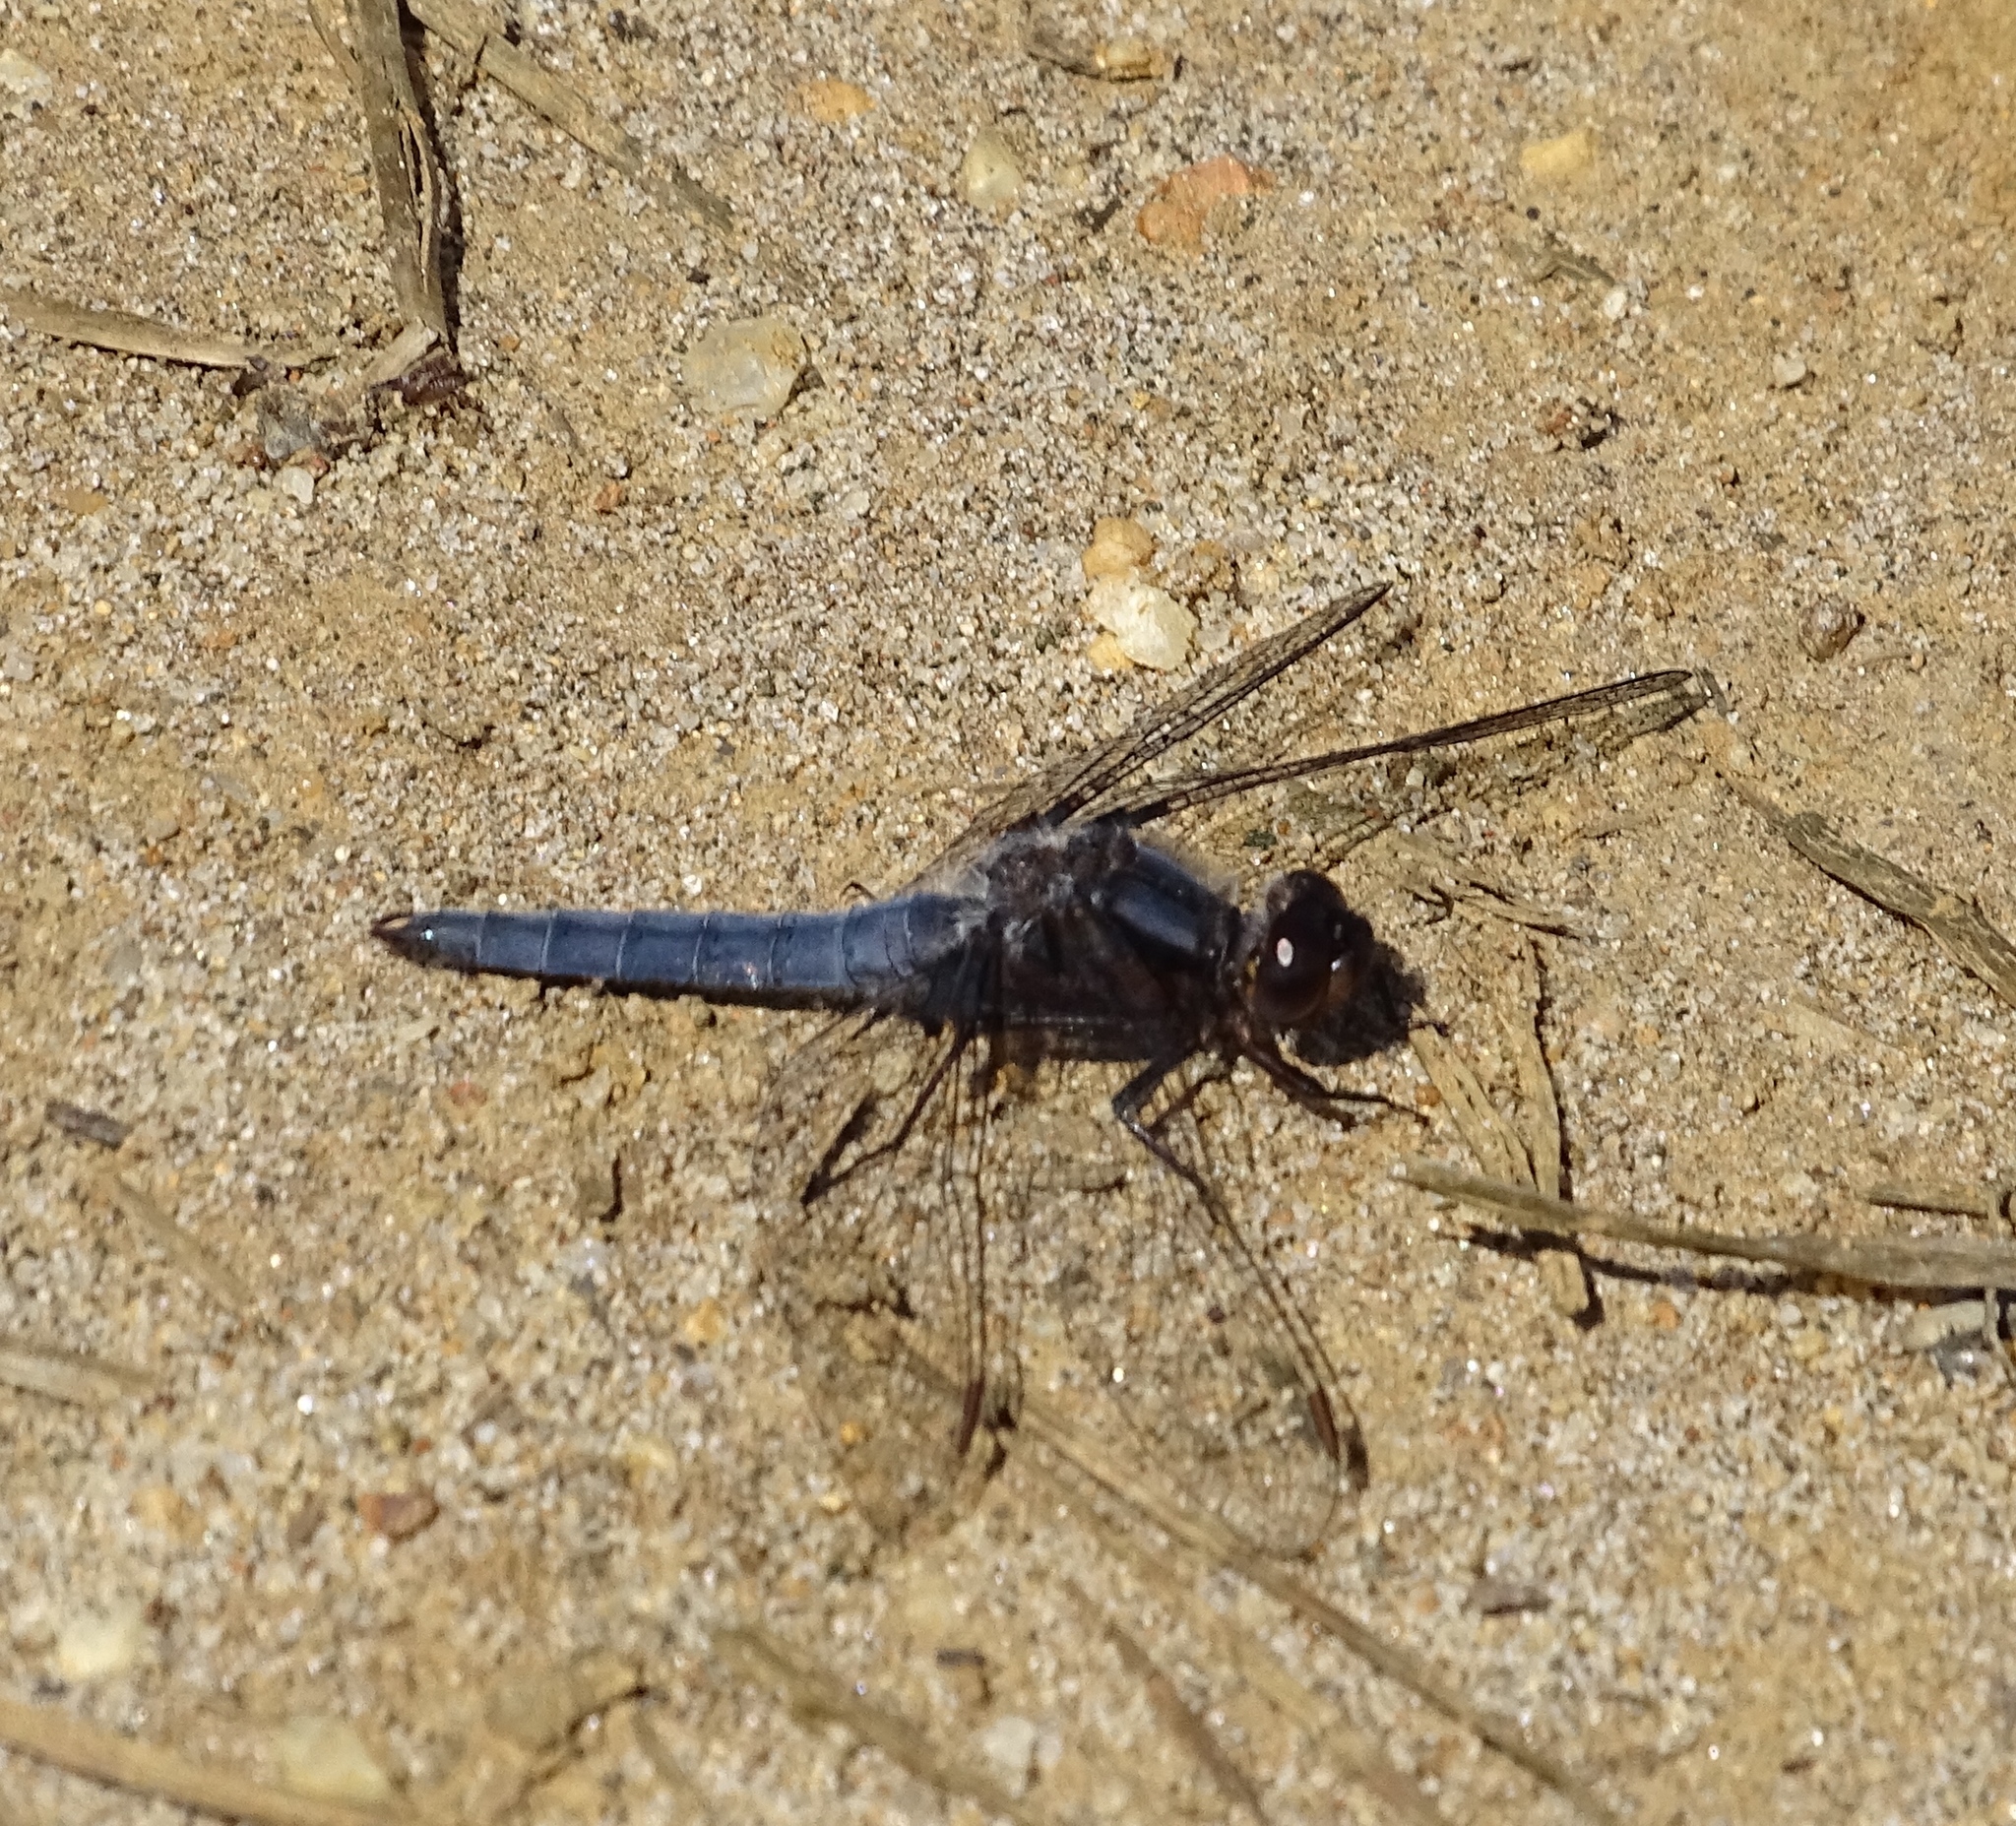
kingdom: Animalia
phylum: Arthropoda
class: Insecta
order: Odonata
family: Libellulidae
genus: Ladona
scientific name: Ladona deplanata
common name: Blue corporal
